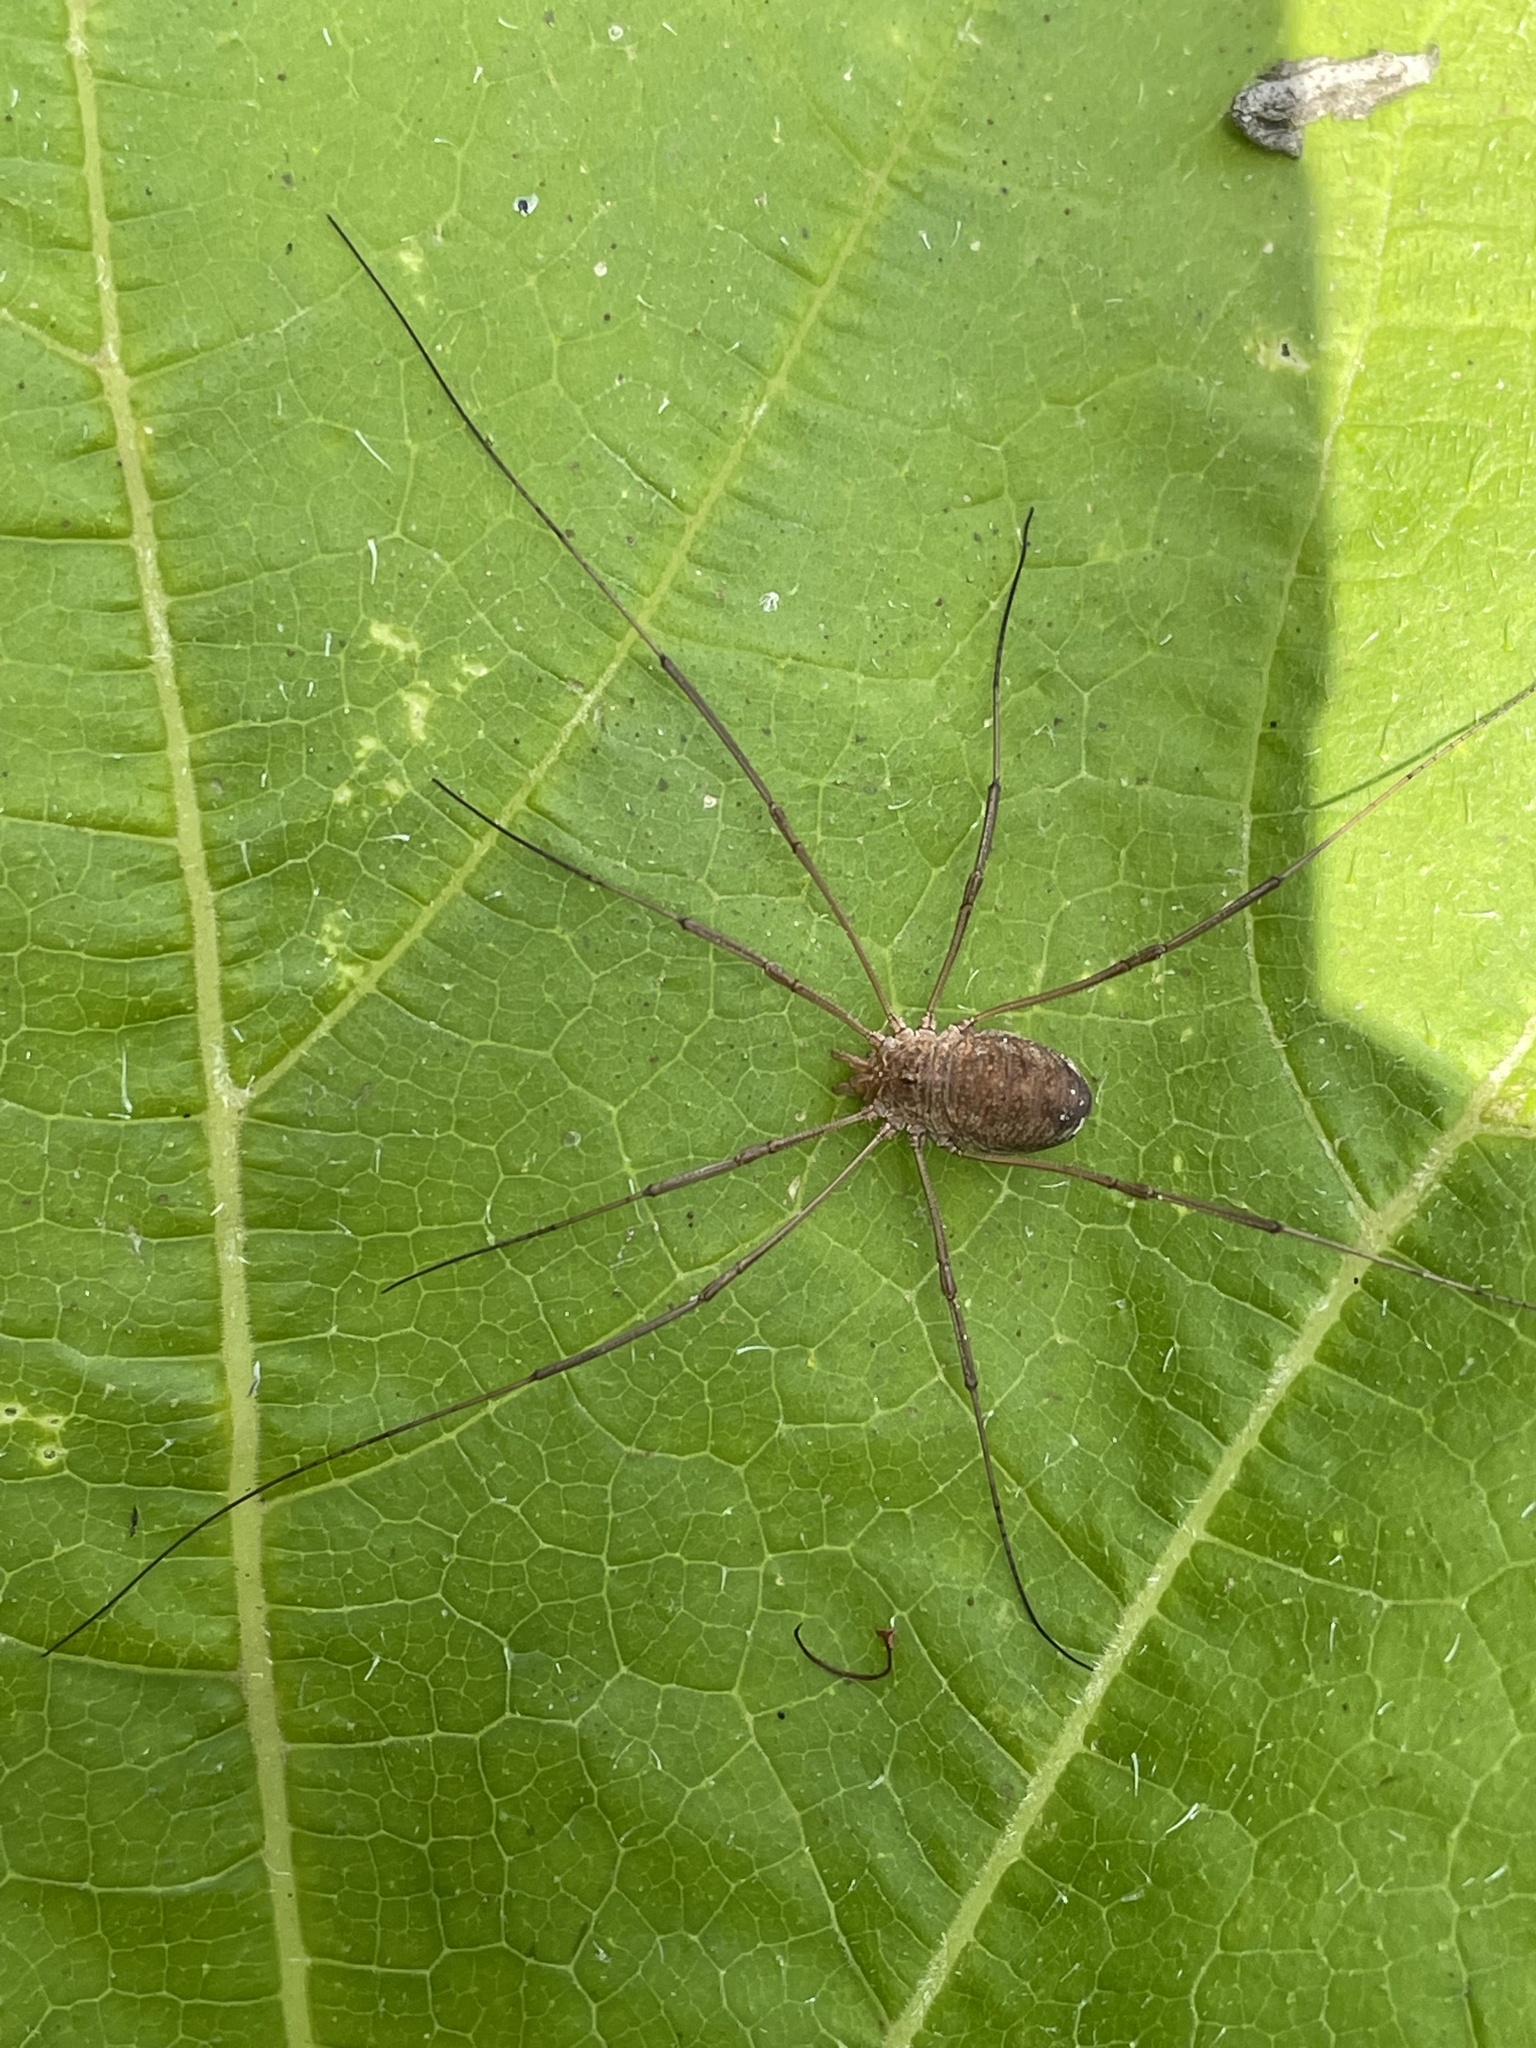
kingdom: Animalia
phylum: Arthropoda
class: Arachnida
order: Opiliones
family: Phalangiidae
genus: Phalangium
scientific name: Phalangium opilio
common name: Daddy longleg
